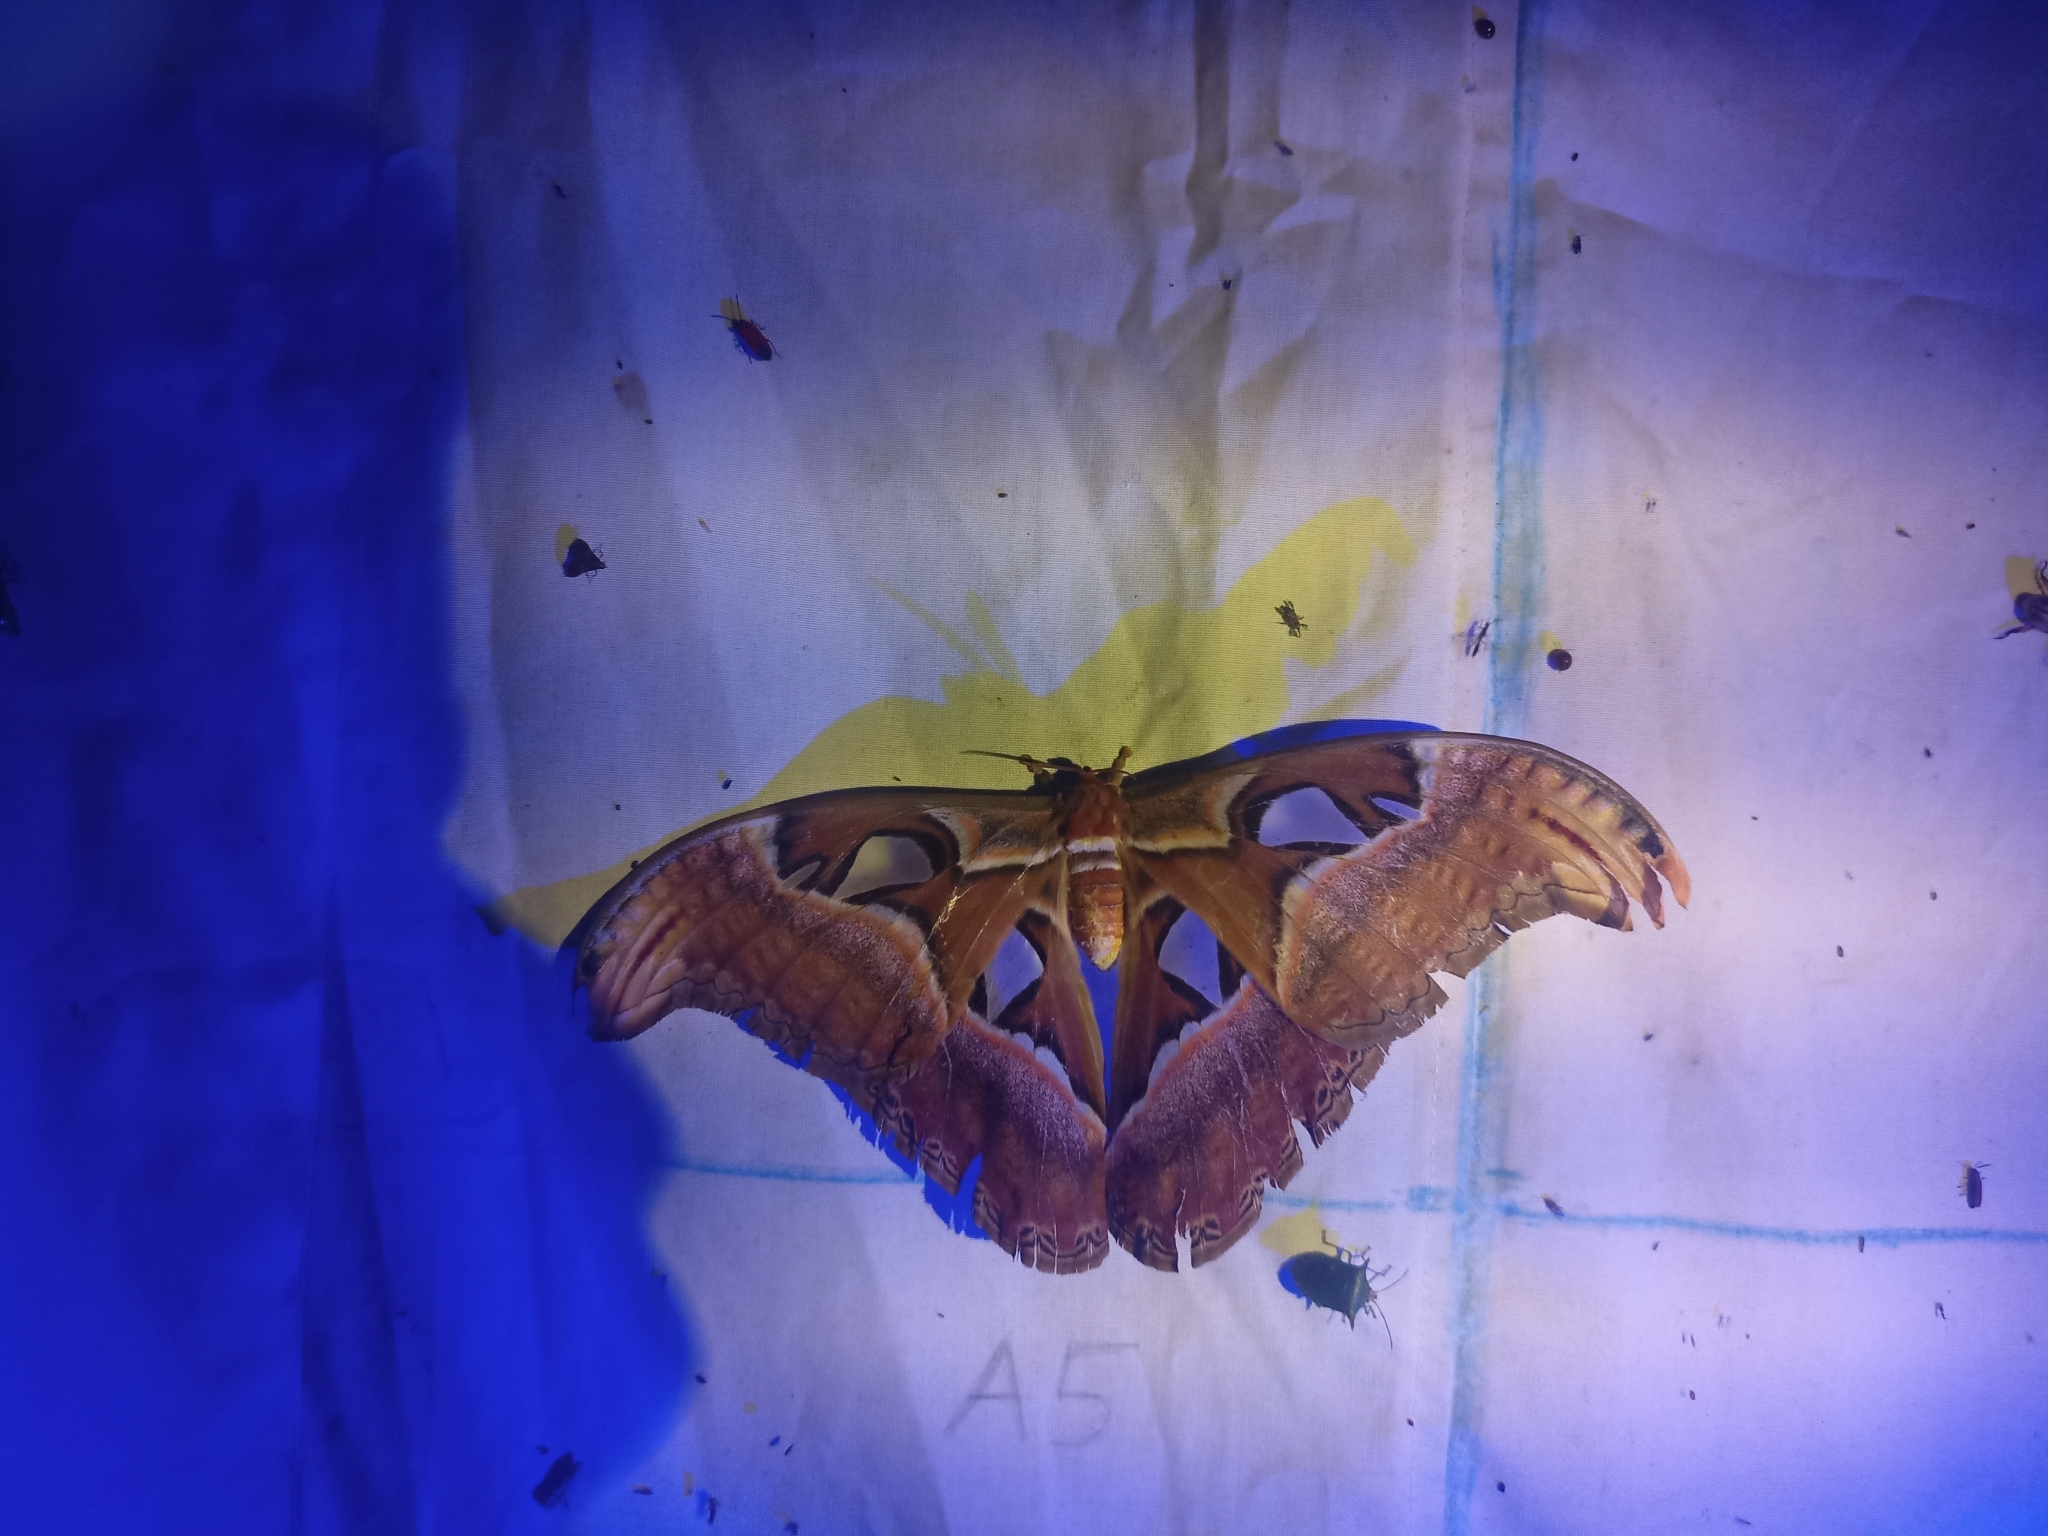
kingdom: Animalia
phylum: Arthropoda
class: Insecta
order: Lepidoptera
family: Saturniidae
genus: Attacus
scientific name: Attacus taprobanis
